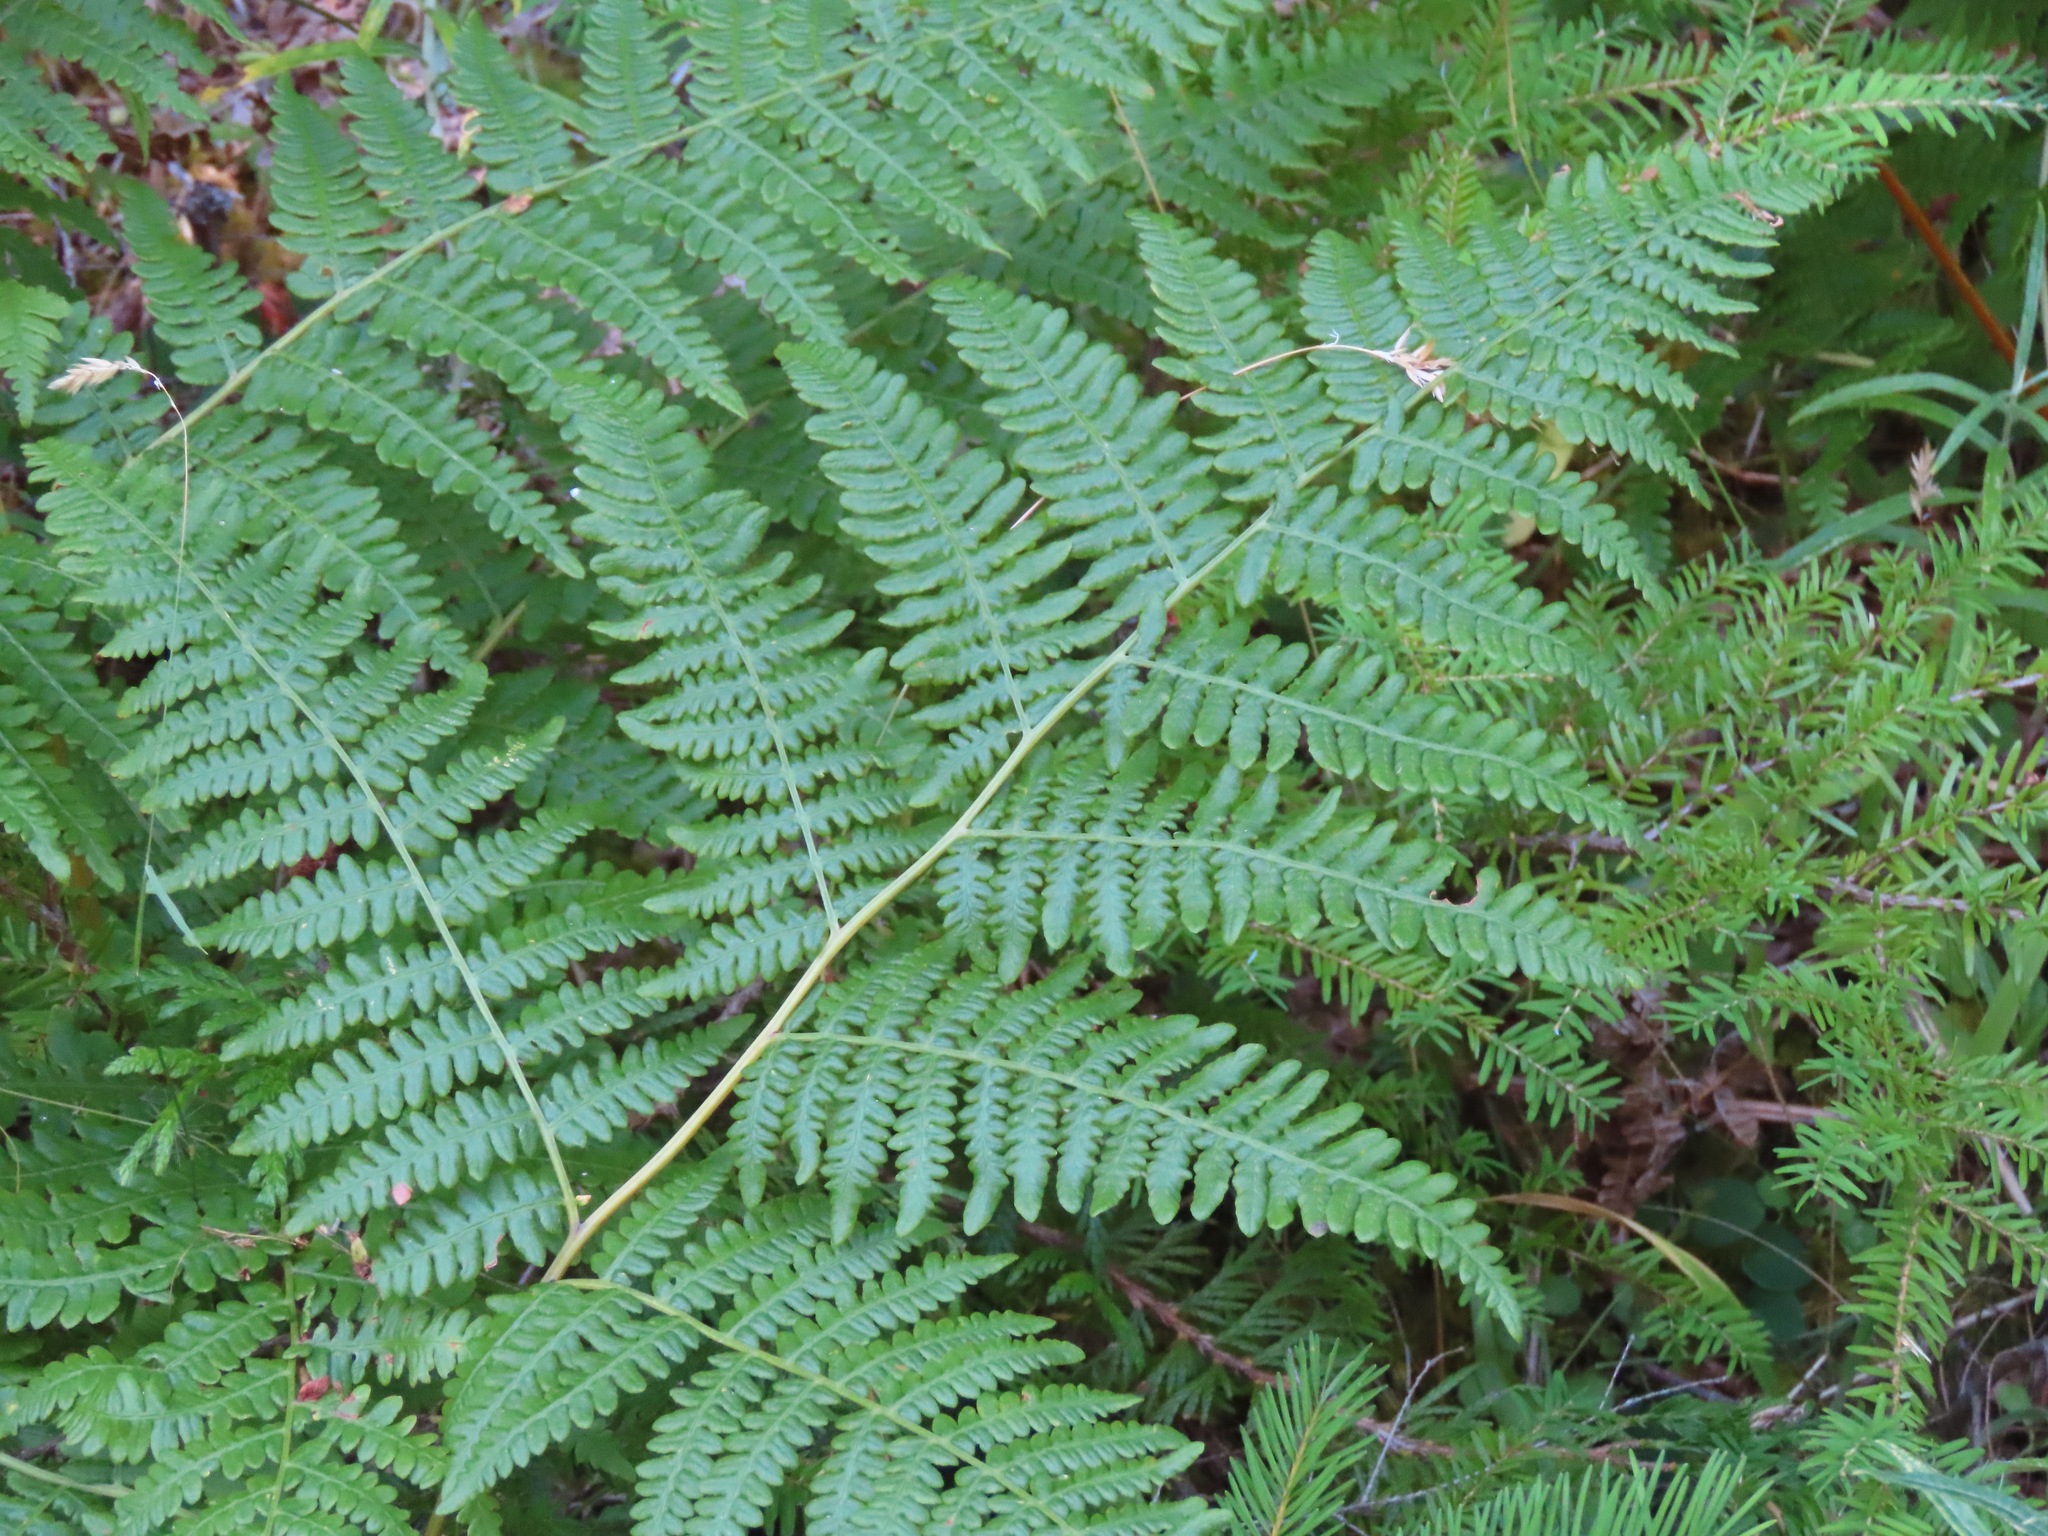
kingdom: Plantae
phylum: Tracheophyta
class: Polypodiopsida
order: Polypodiales
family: Dennstaedtiaceae
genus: Pteridium
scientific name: Pteridium aquilinum
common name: Bracken
